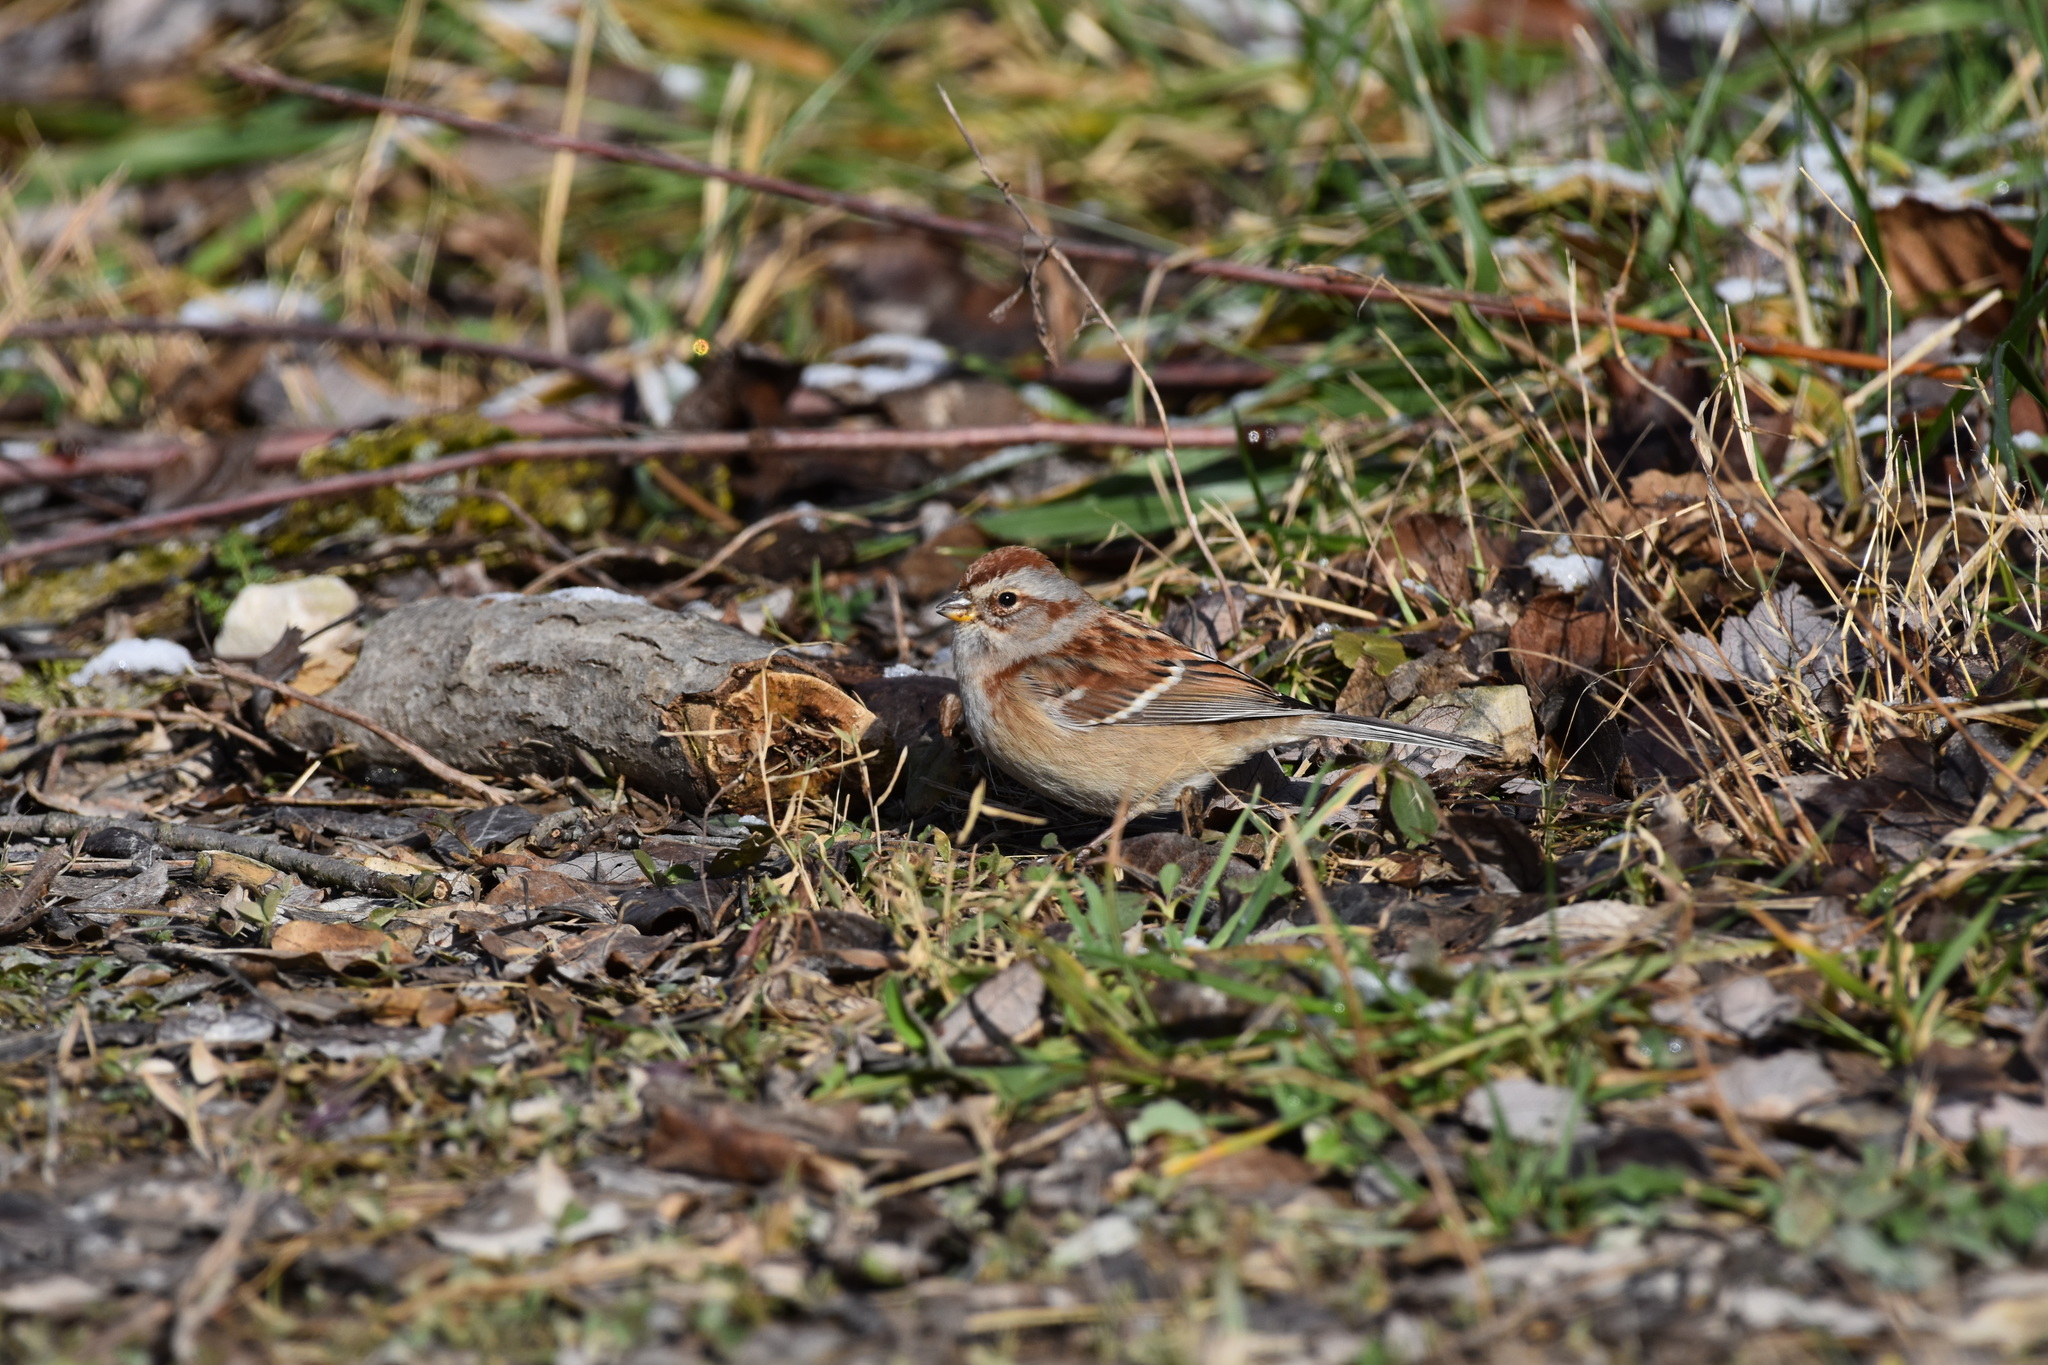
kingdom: Animalia
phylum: Chordata
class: Aves
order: Passeriformes
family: Passerellidae
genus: Spizelloides
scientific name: Spizelloides arborea
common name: American tree sparrow
